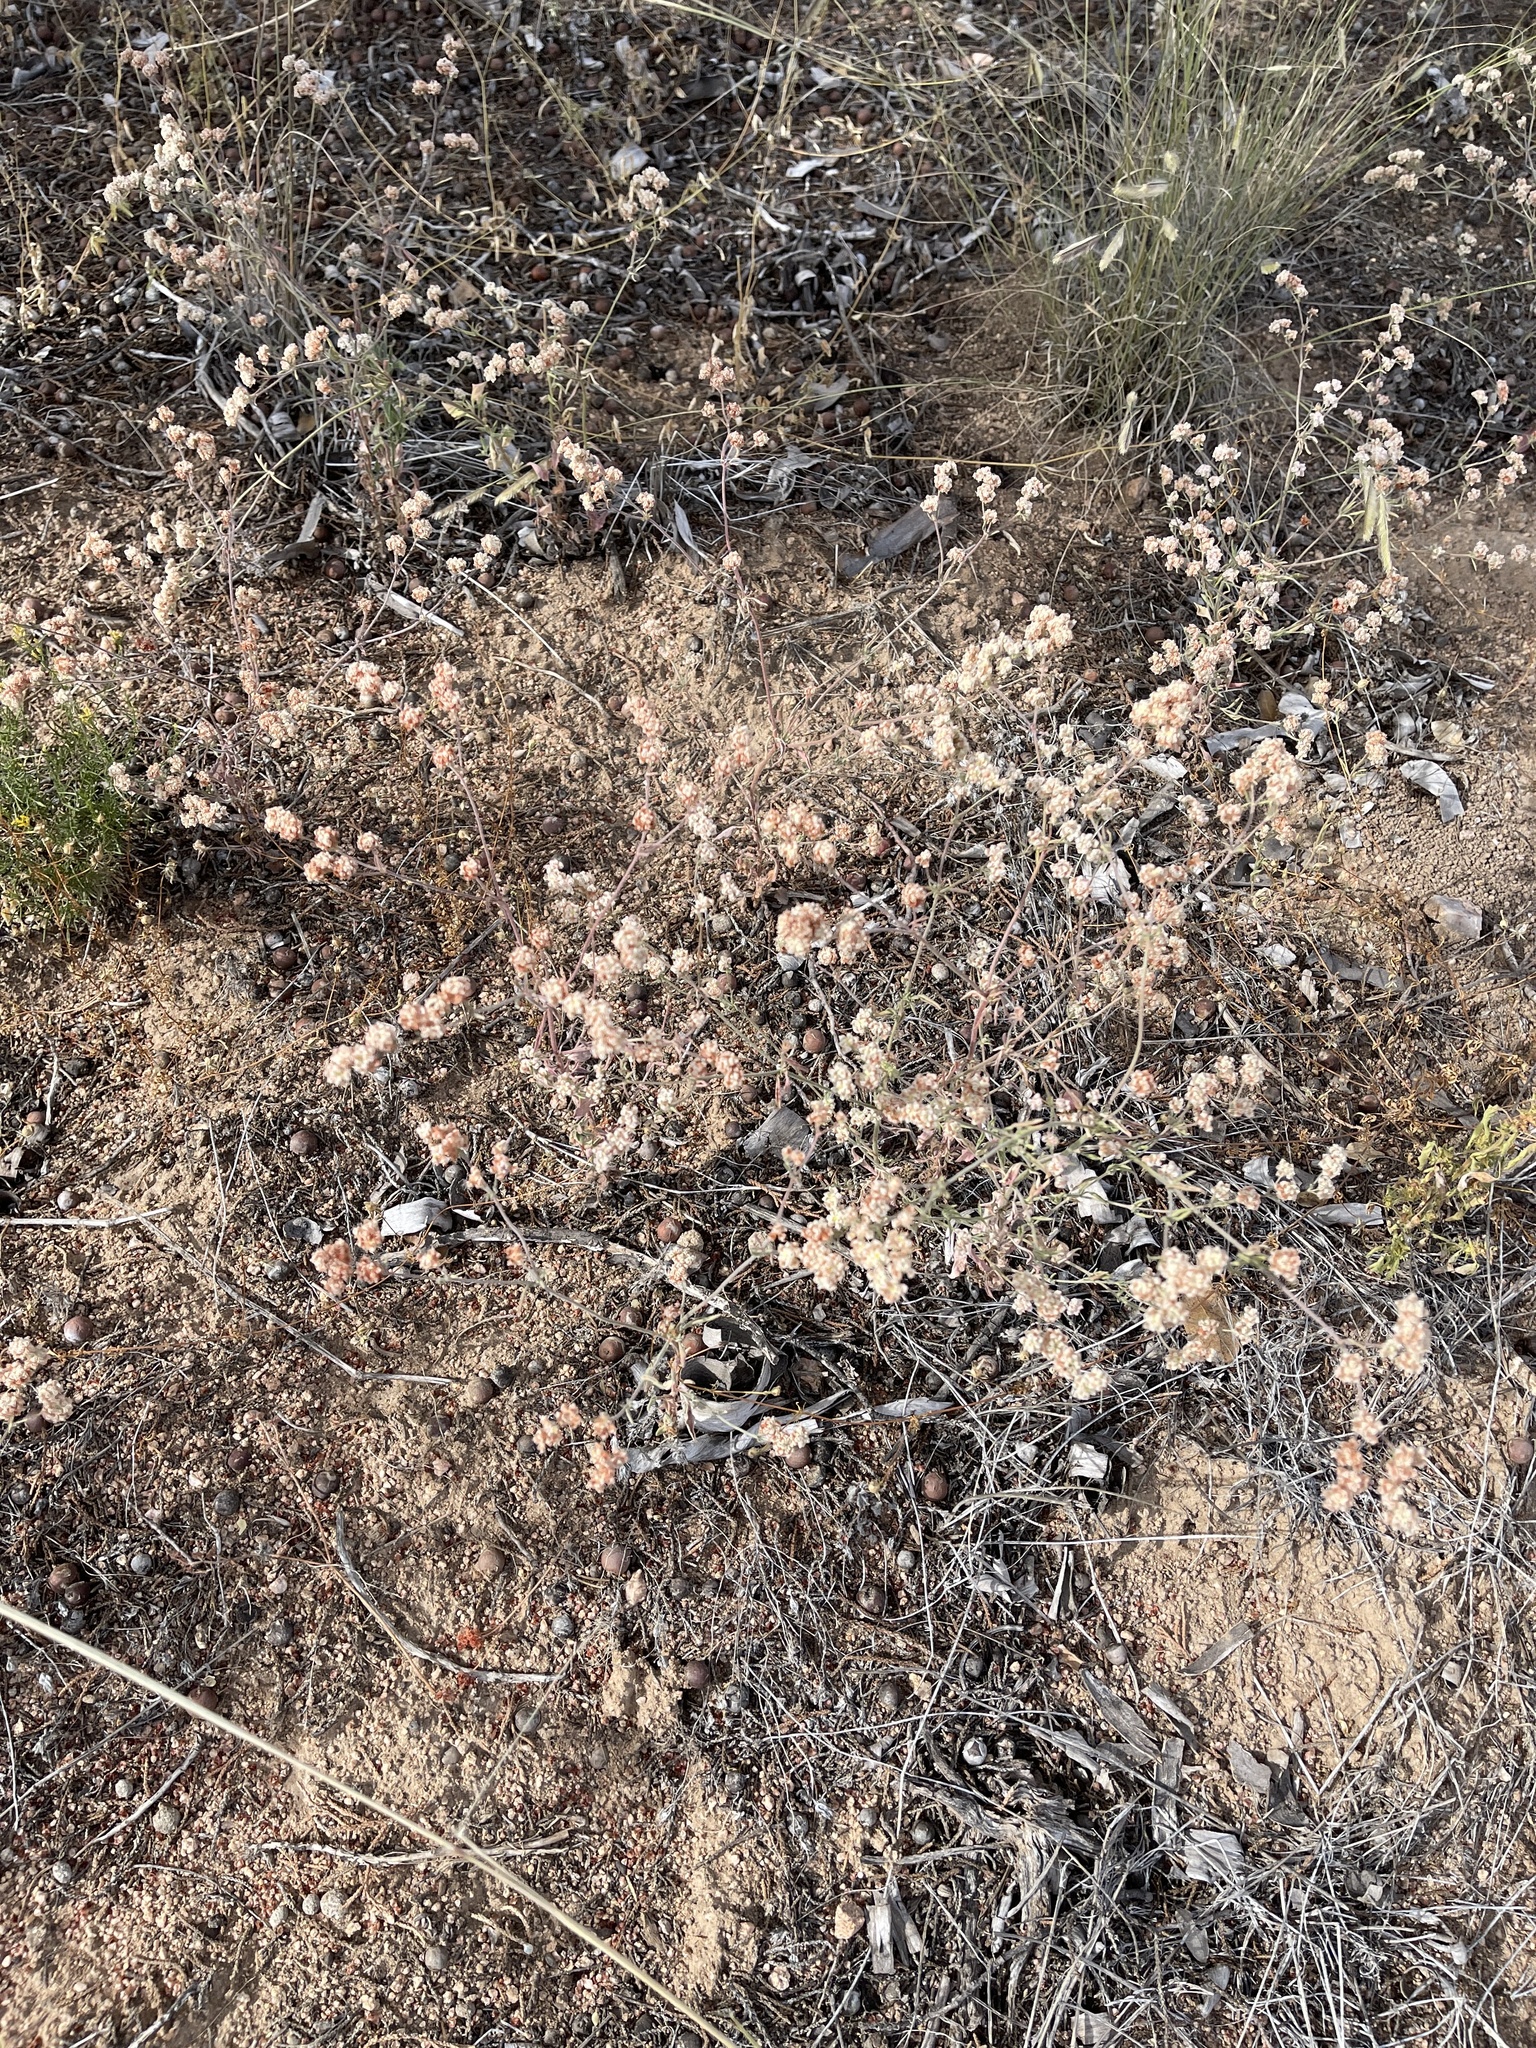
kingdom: Plantae
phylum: Tracheophyta
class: Magnoliopsida
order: Caryophyllales
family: Polygonaceae
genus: Eriogonum
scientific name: Eriogonum abertianum
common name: Abert's wild buckwheat
